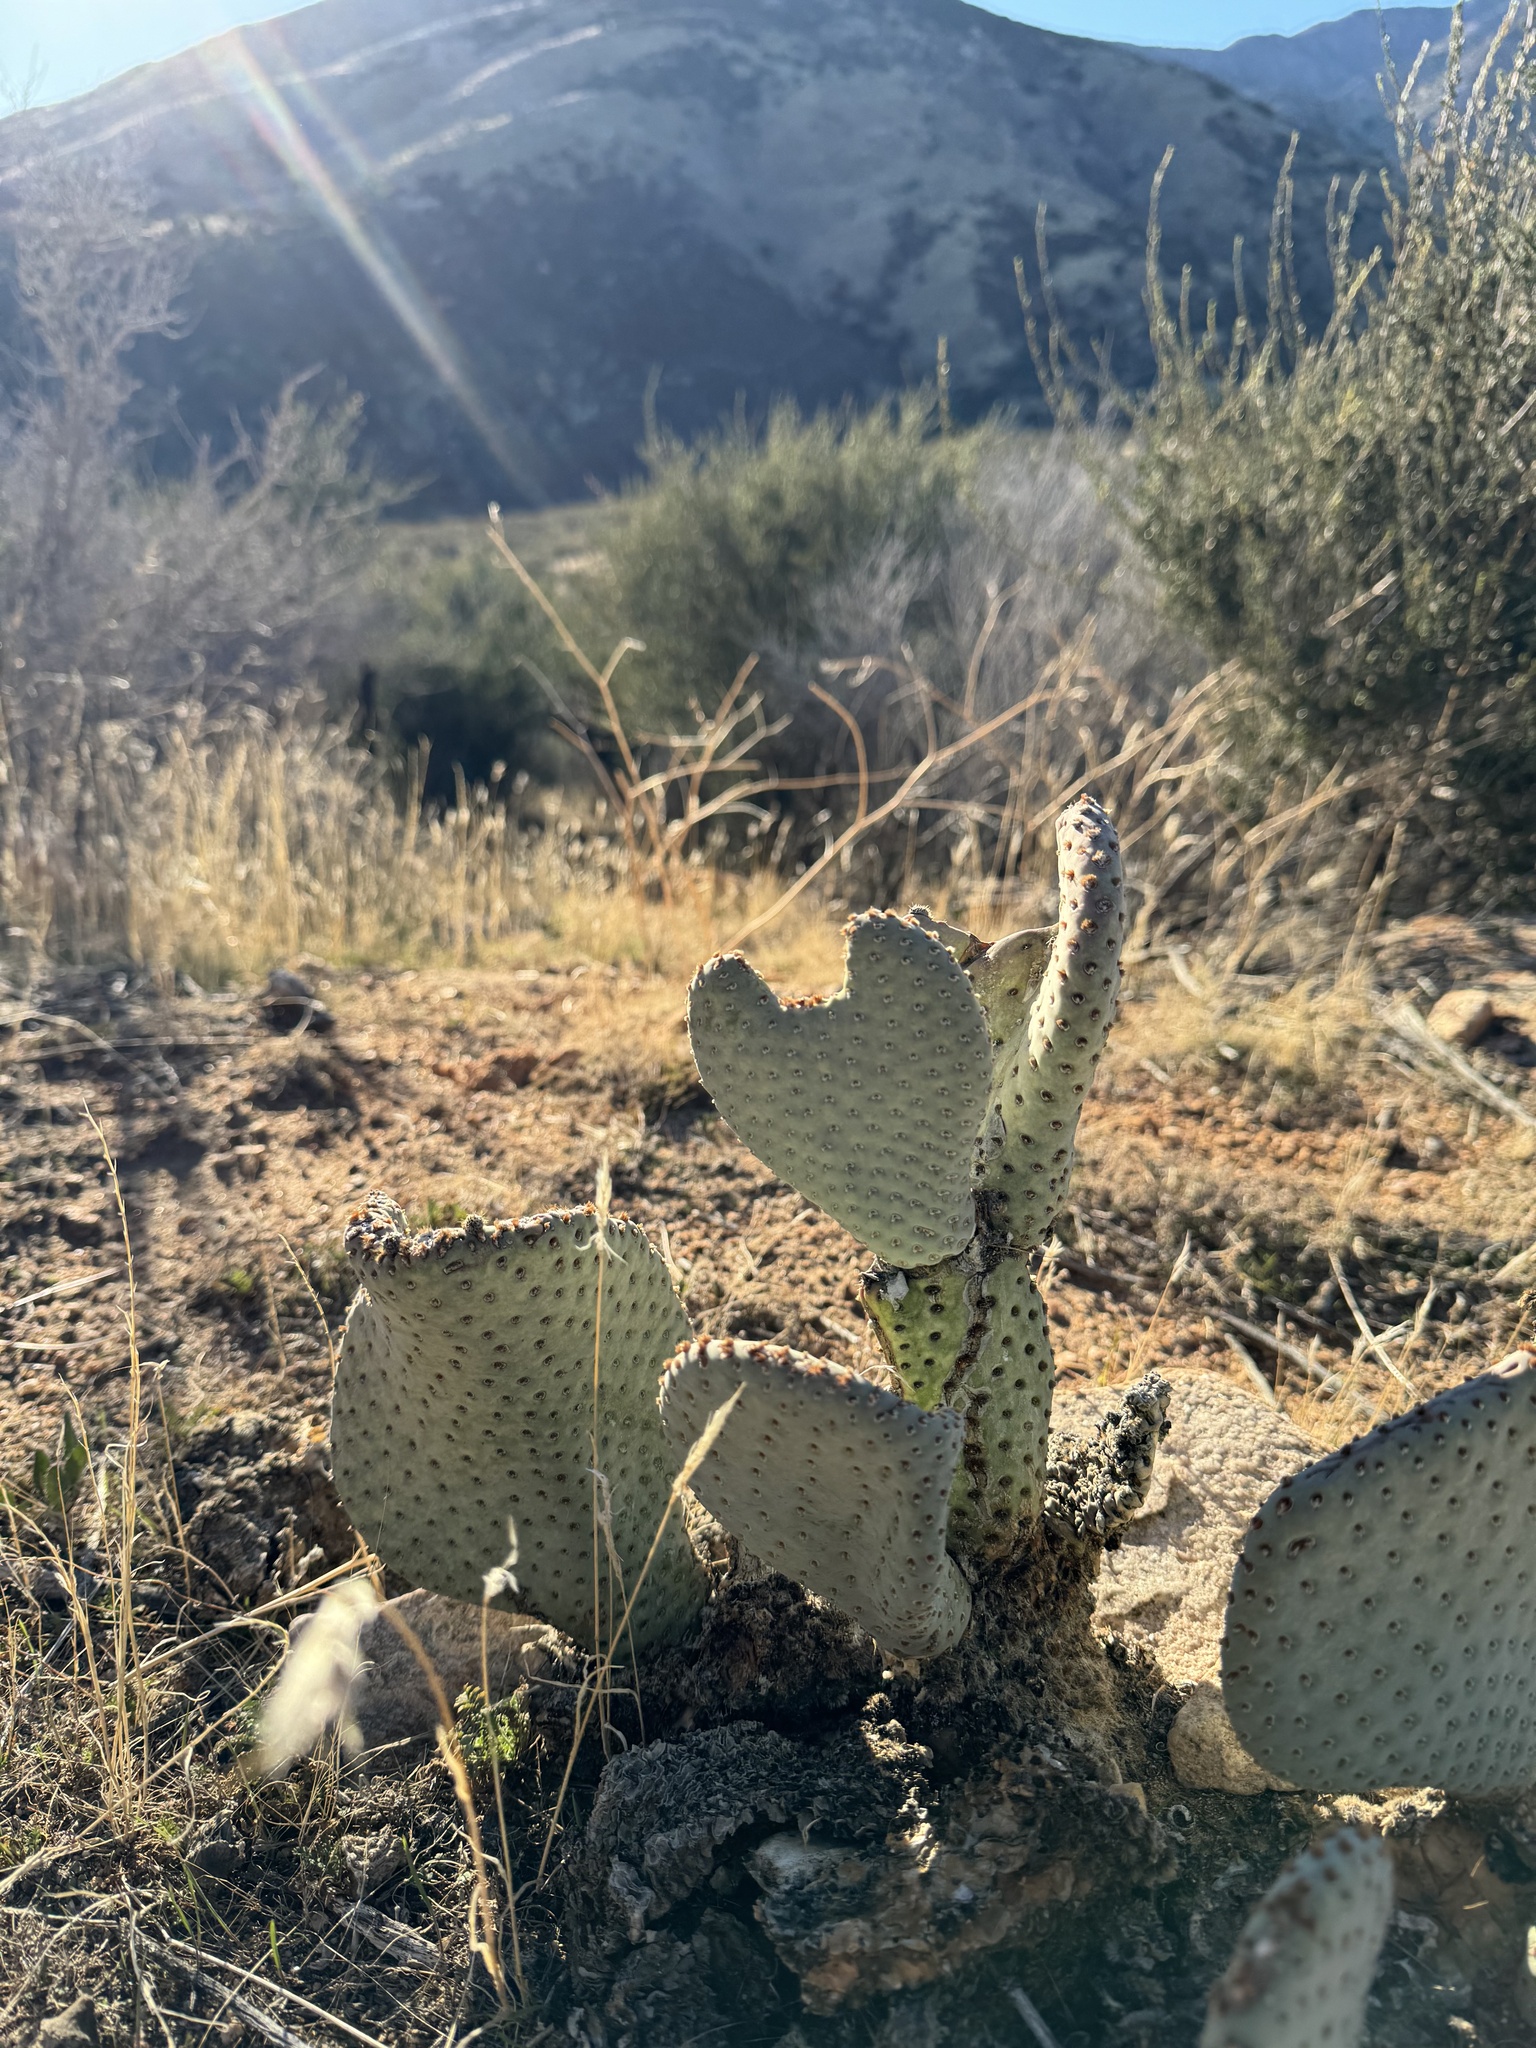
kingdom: Plantae
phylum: Tracheophyta
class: Magnoliopsida
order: Caryophyllales
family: Cactaceae
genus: Opuntia
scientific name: Opuntia basilaris
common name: Beavertail prickly-pear
